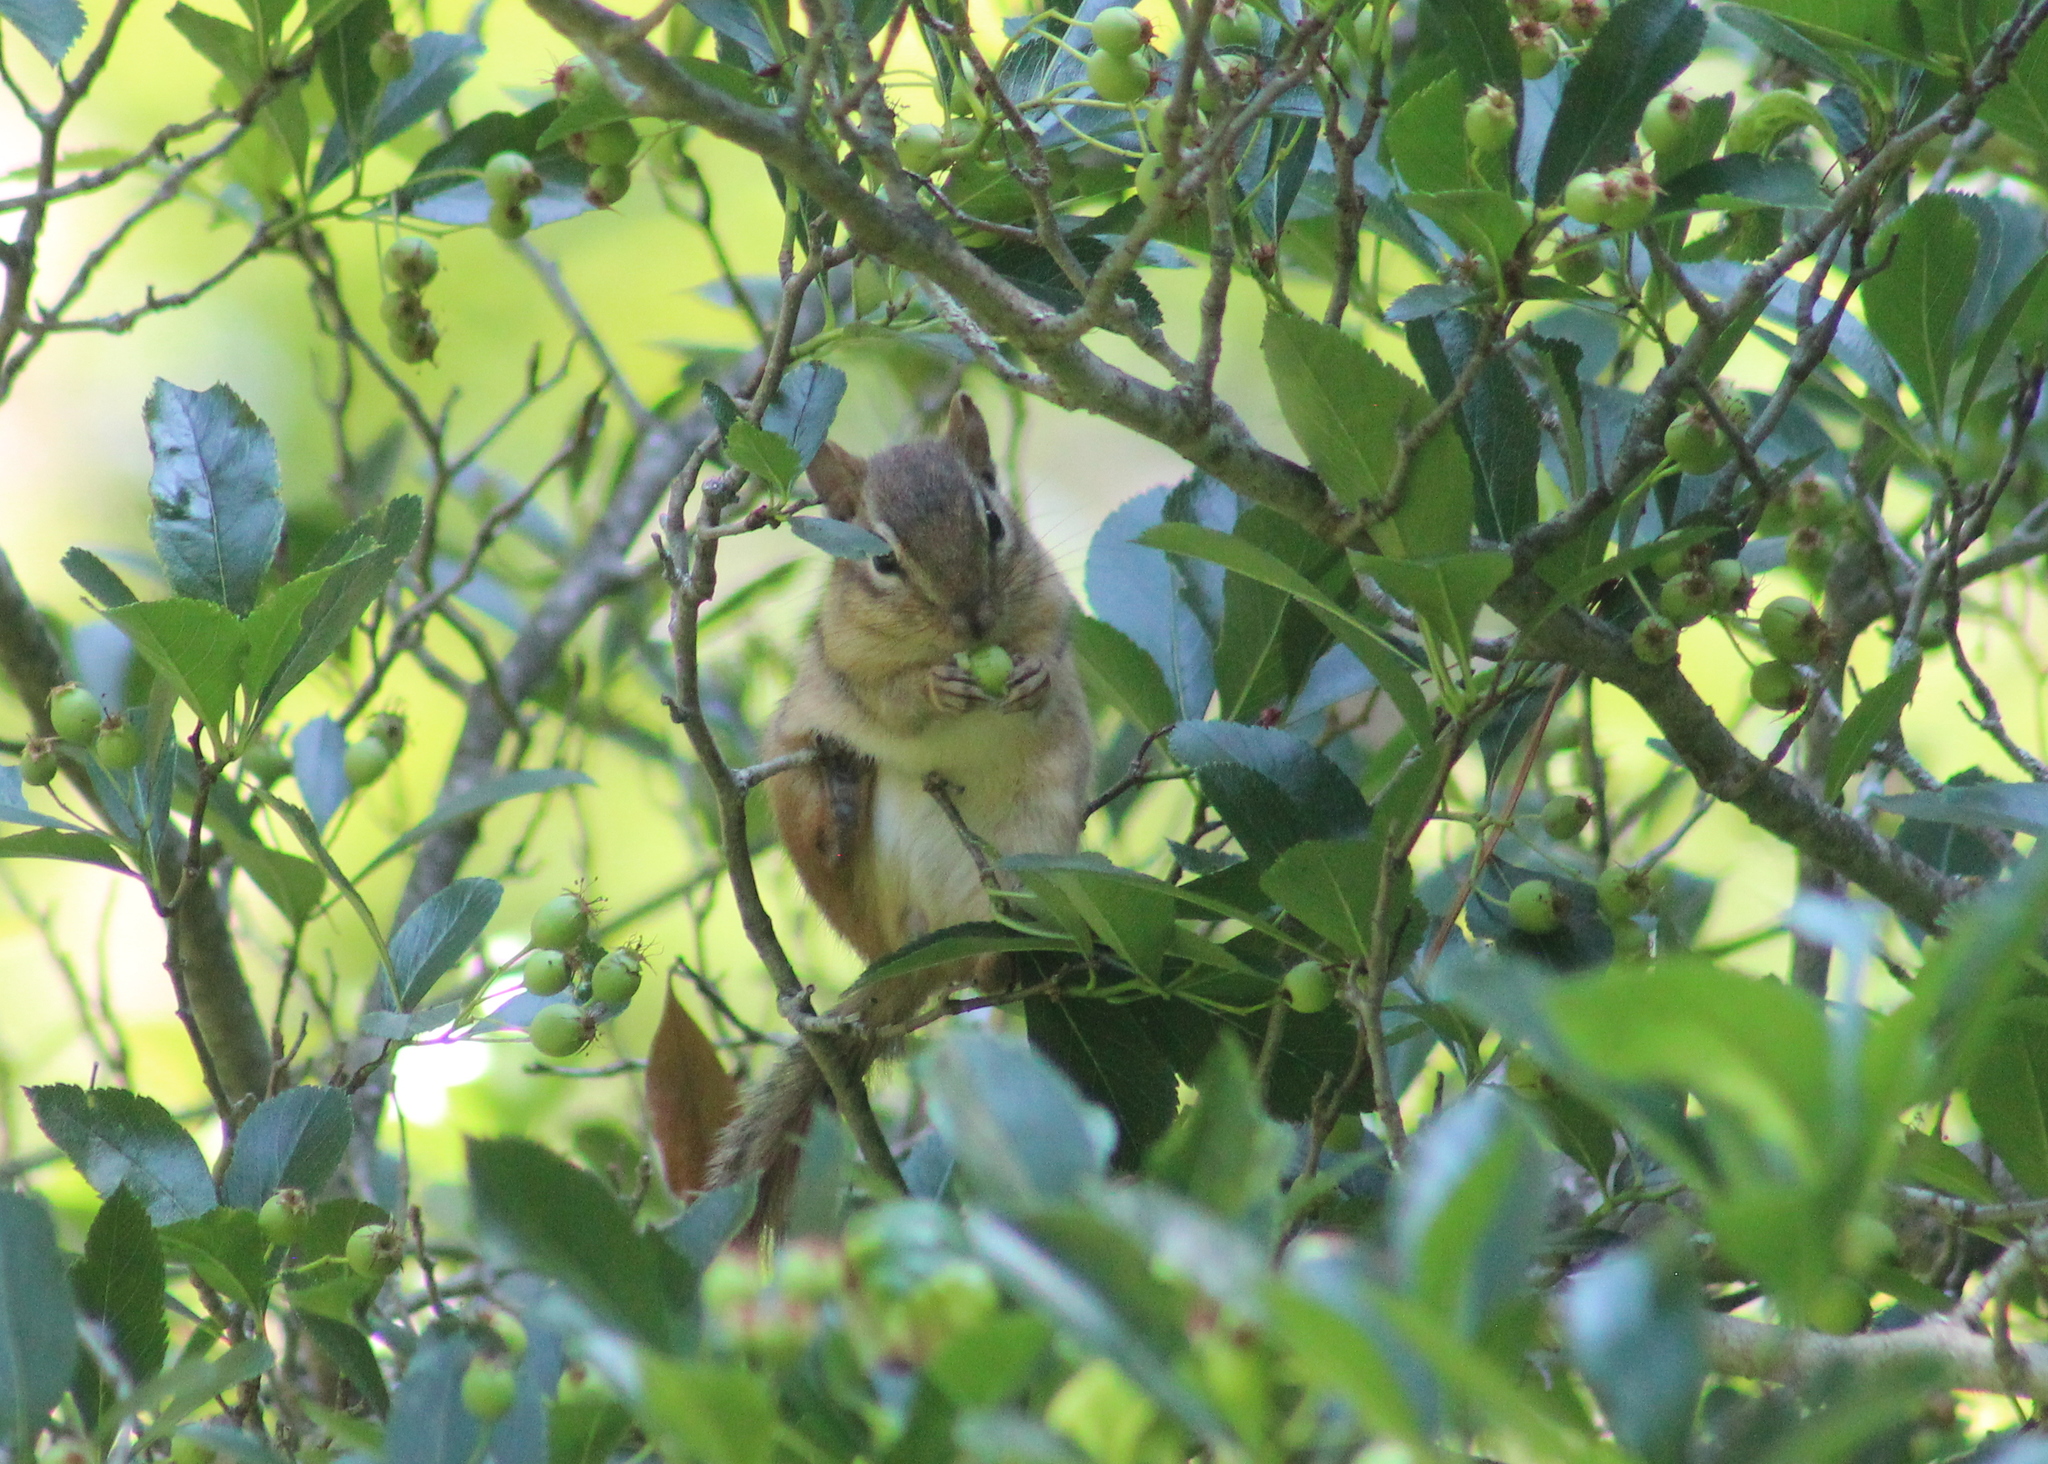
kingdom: Animalia
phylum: Chordata
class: Mammalia
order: Rodentia
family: Sciuridae
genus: Tamias
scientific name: Tamias striatus
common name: Eastern chipmunk
